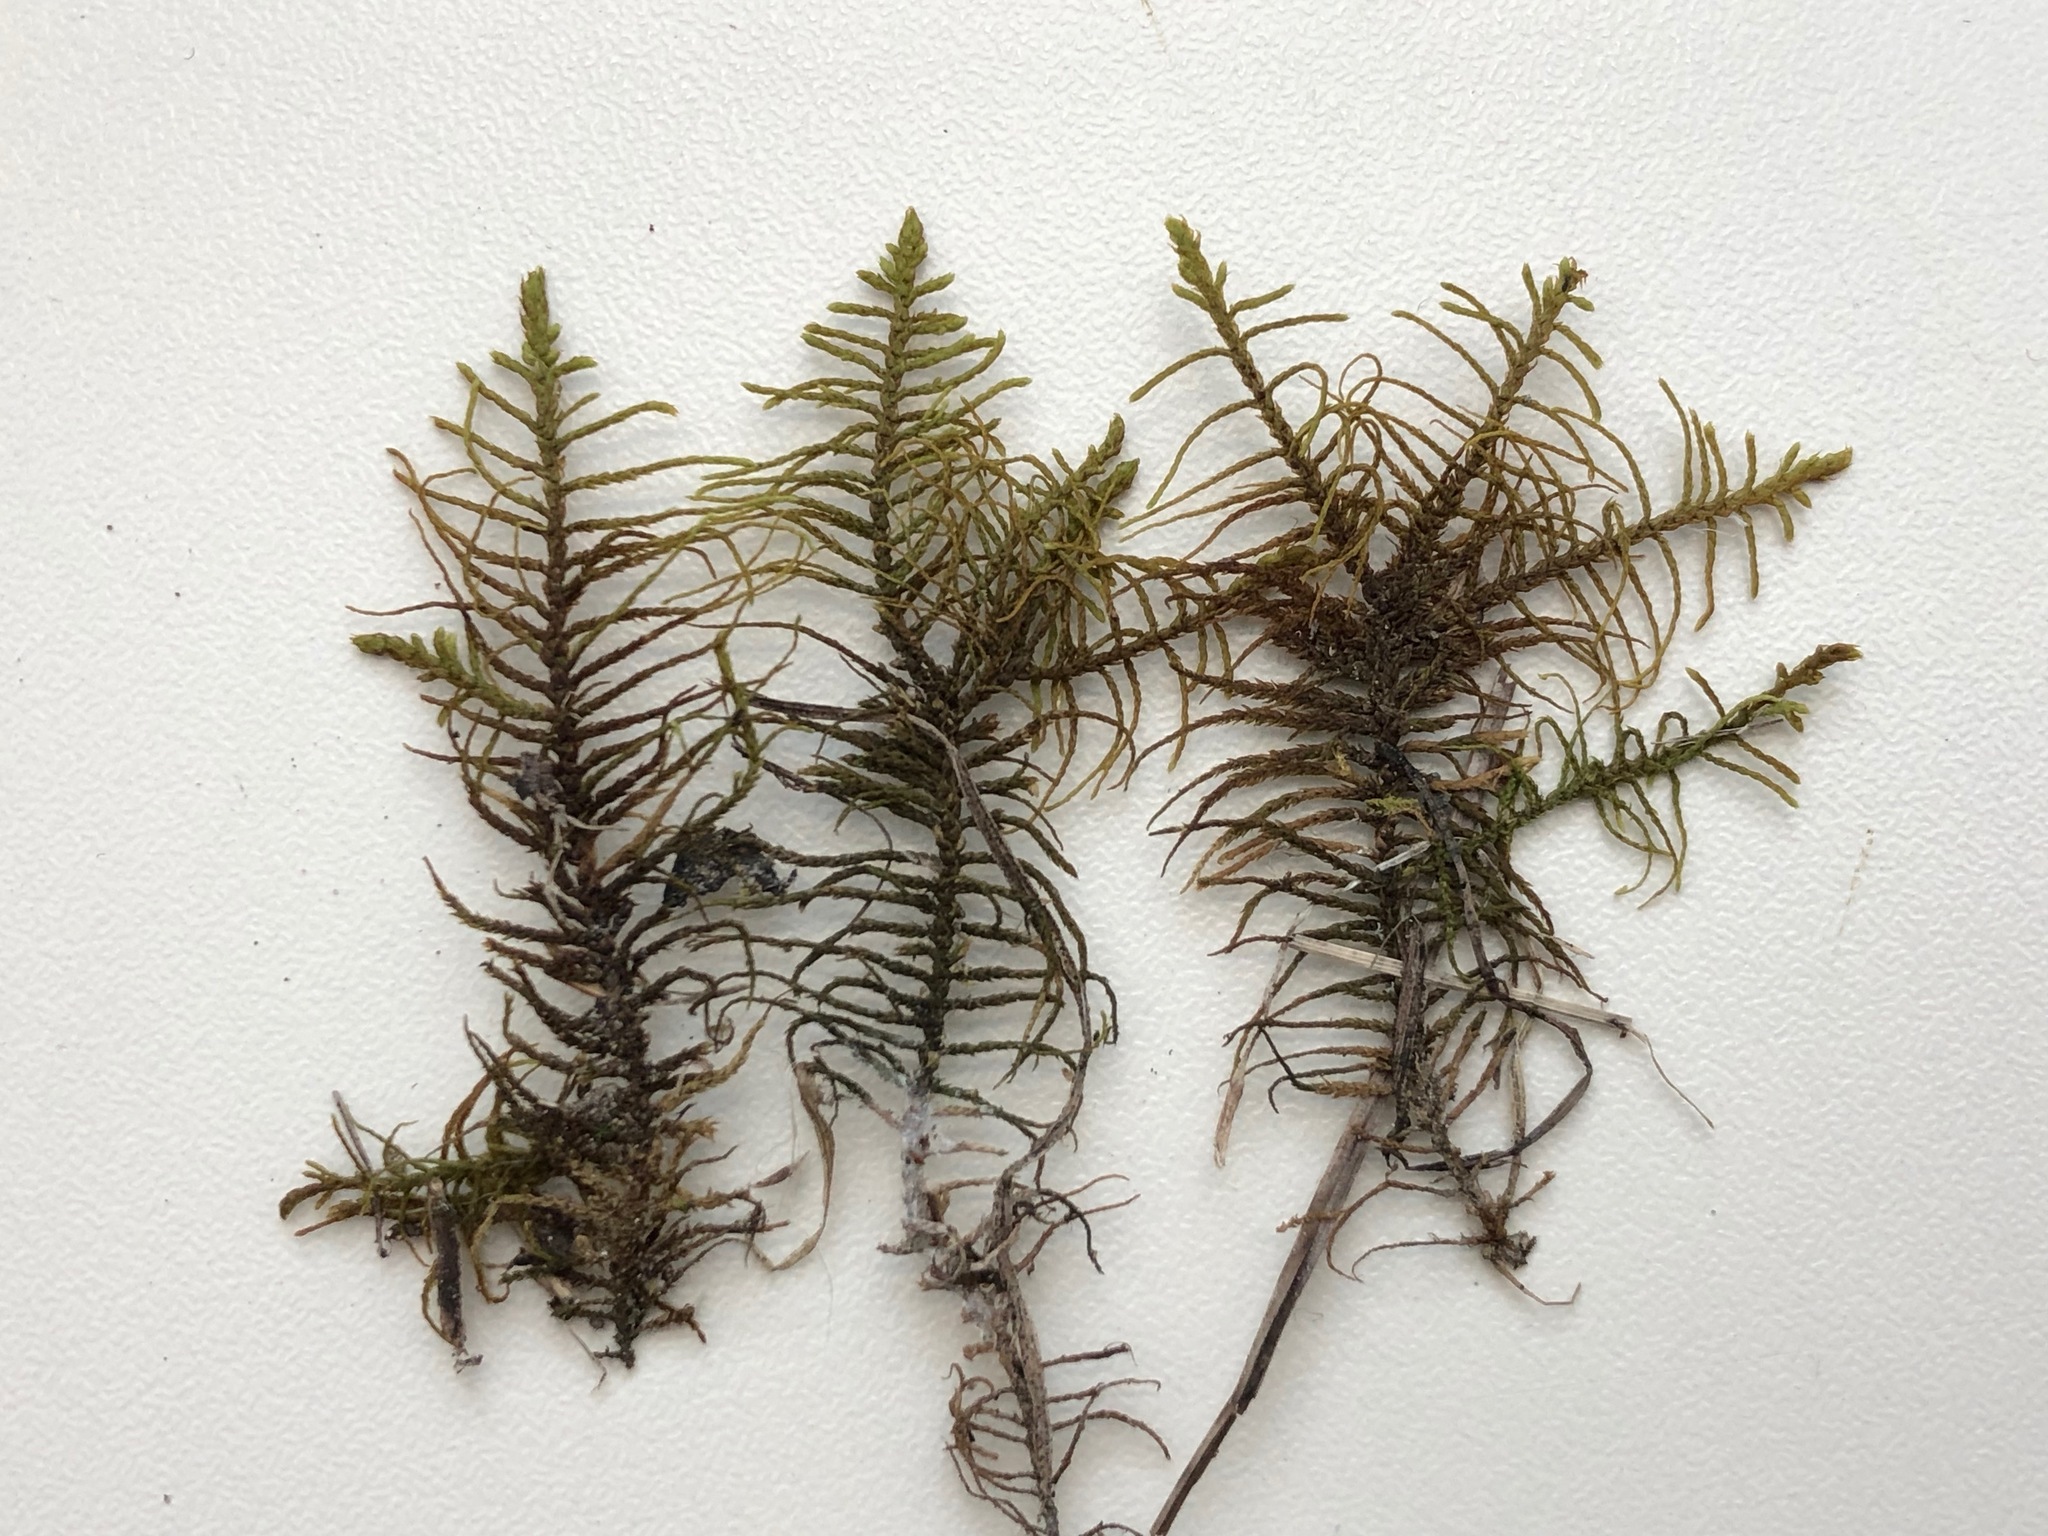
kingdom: Plantae
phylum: Bryophyta
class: Bryopsida
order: Hypnales
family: Thuidiaceae
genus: Abietinella
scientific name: Abietinella abietina
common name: Wiry fern moss
